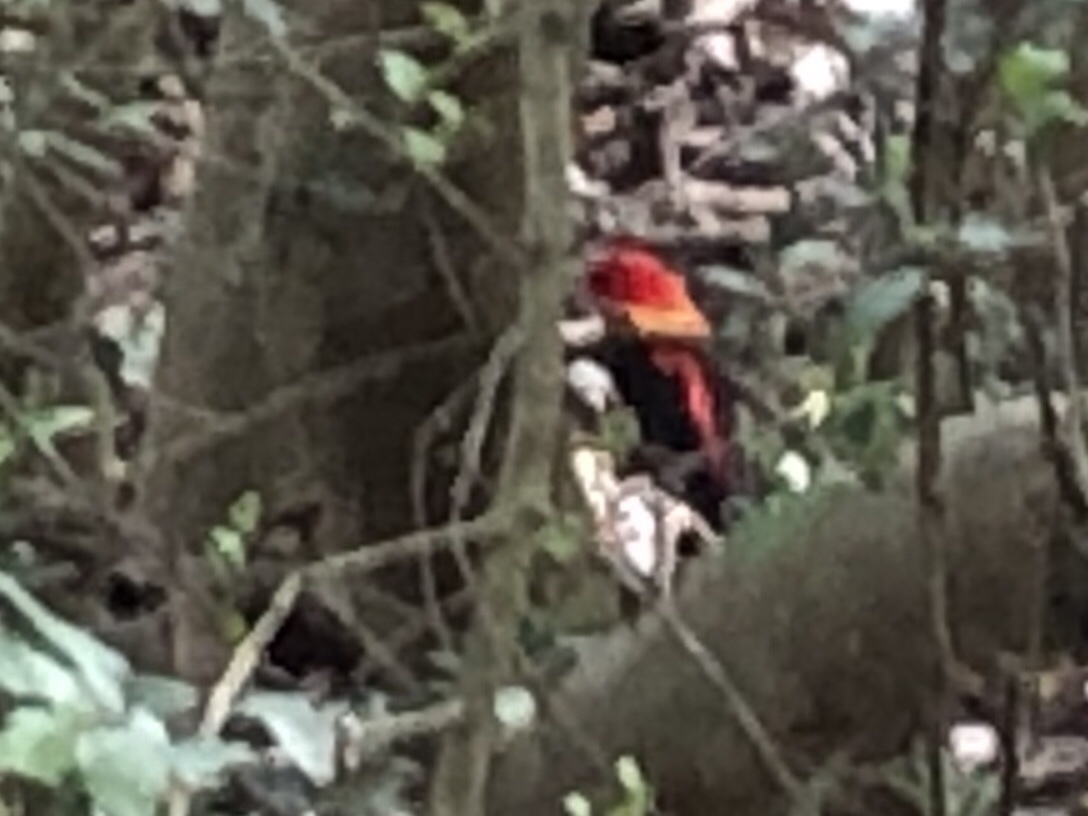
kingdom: Animalia
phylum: Chordata
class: Aves
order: Passeriformes
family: Cardinalidae
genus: Piranga
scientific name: Piranga olivacea
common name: Scarlet tanager
